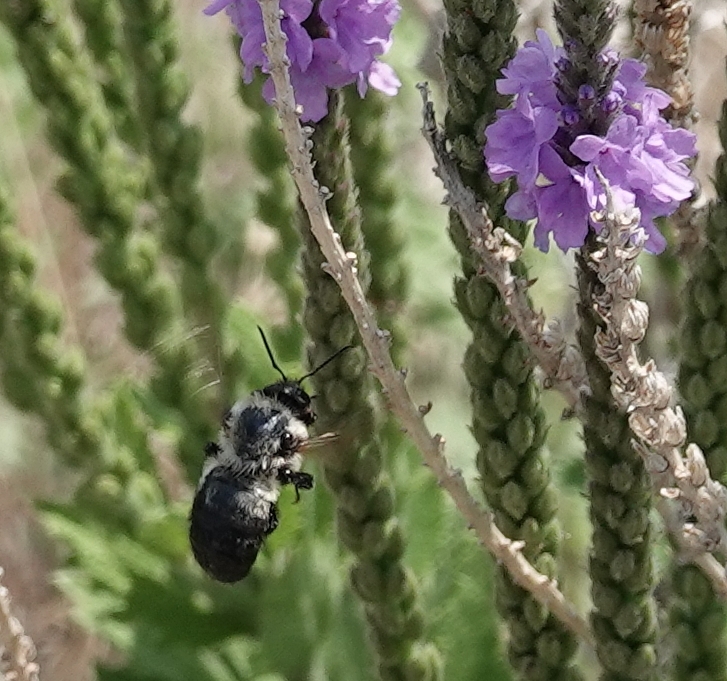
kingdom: Animalia
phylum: Arthropoda
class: Insecta
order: Hymenoptera
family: Apidae
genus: Bombus
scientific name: Bombus griseocollis
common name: Brown-belted bumble bee
